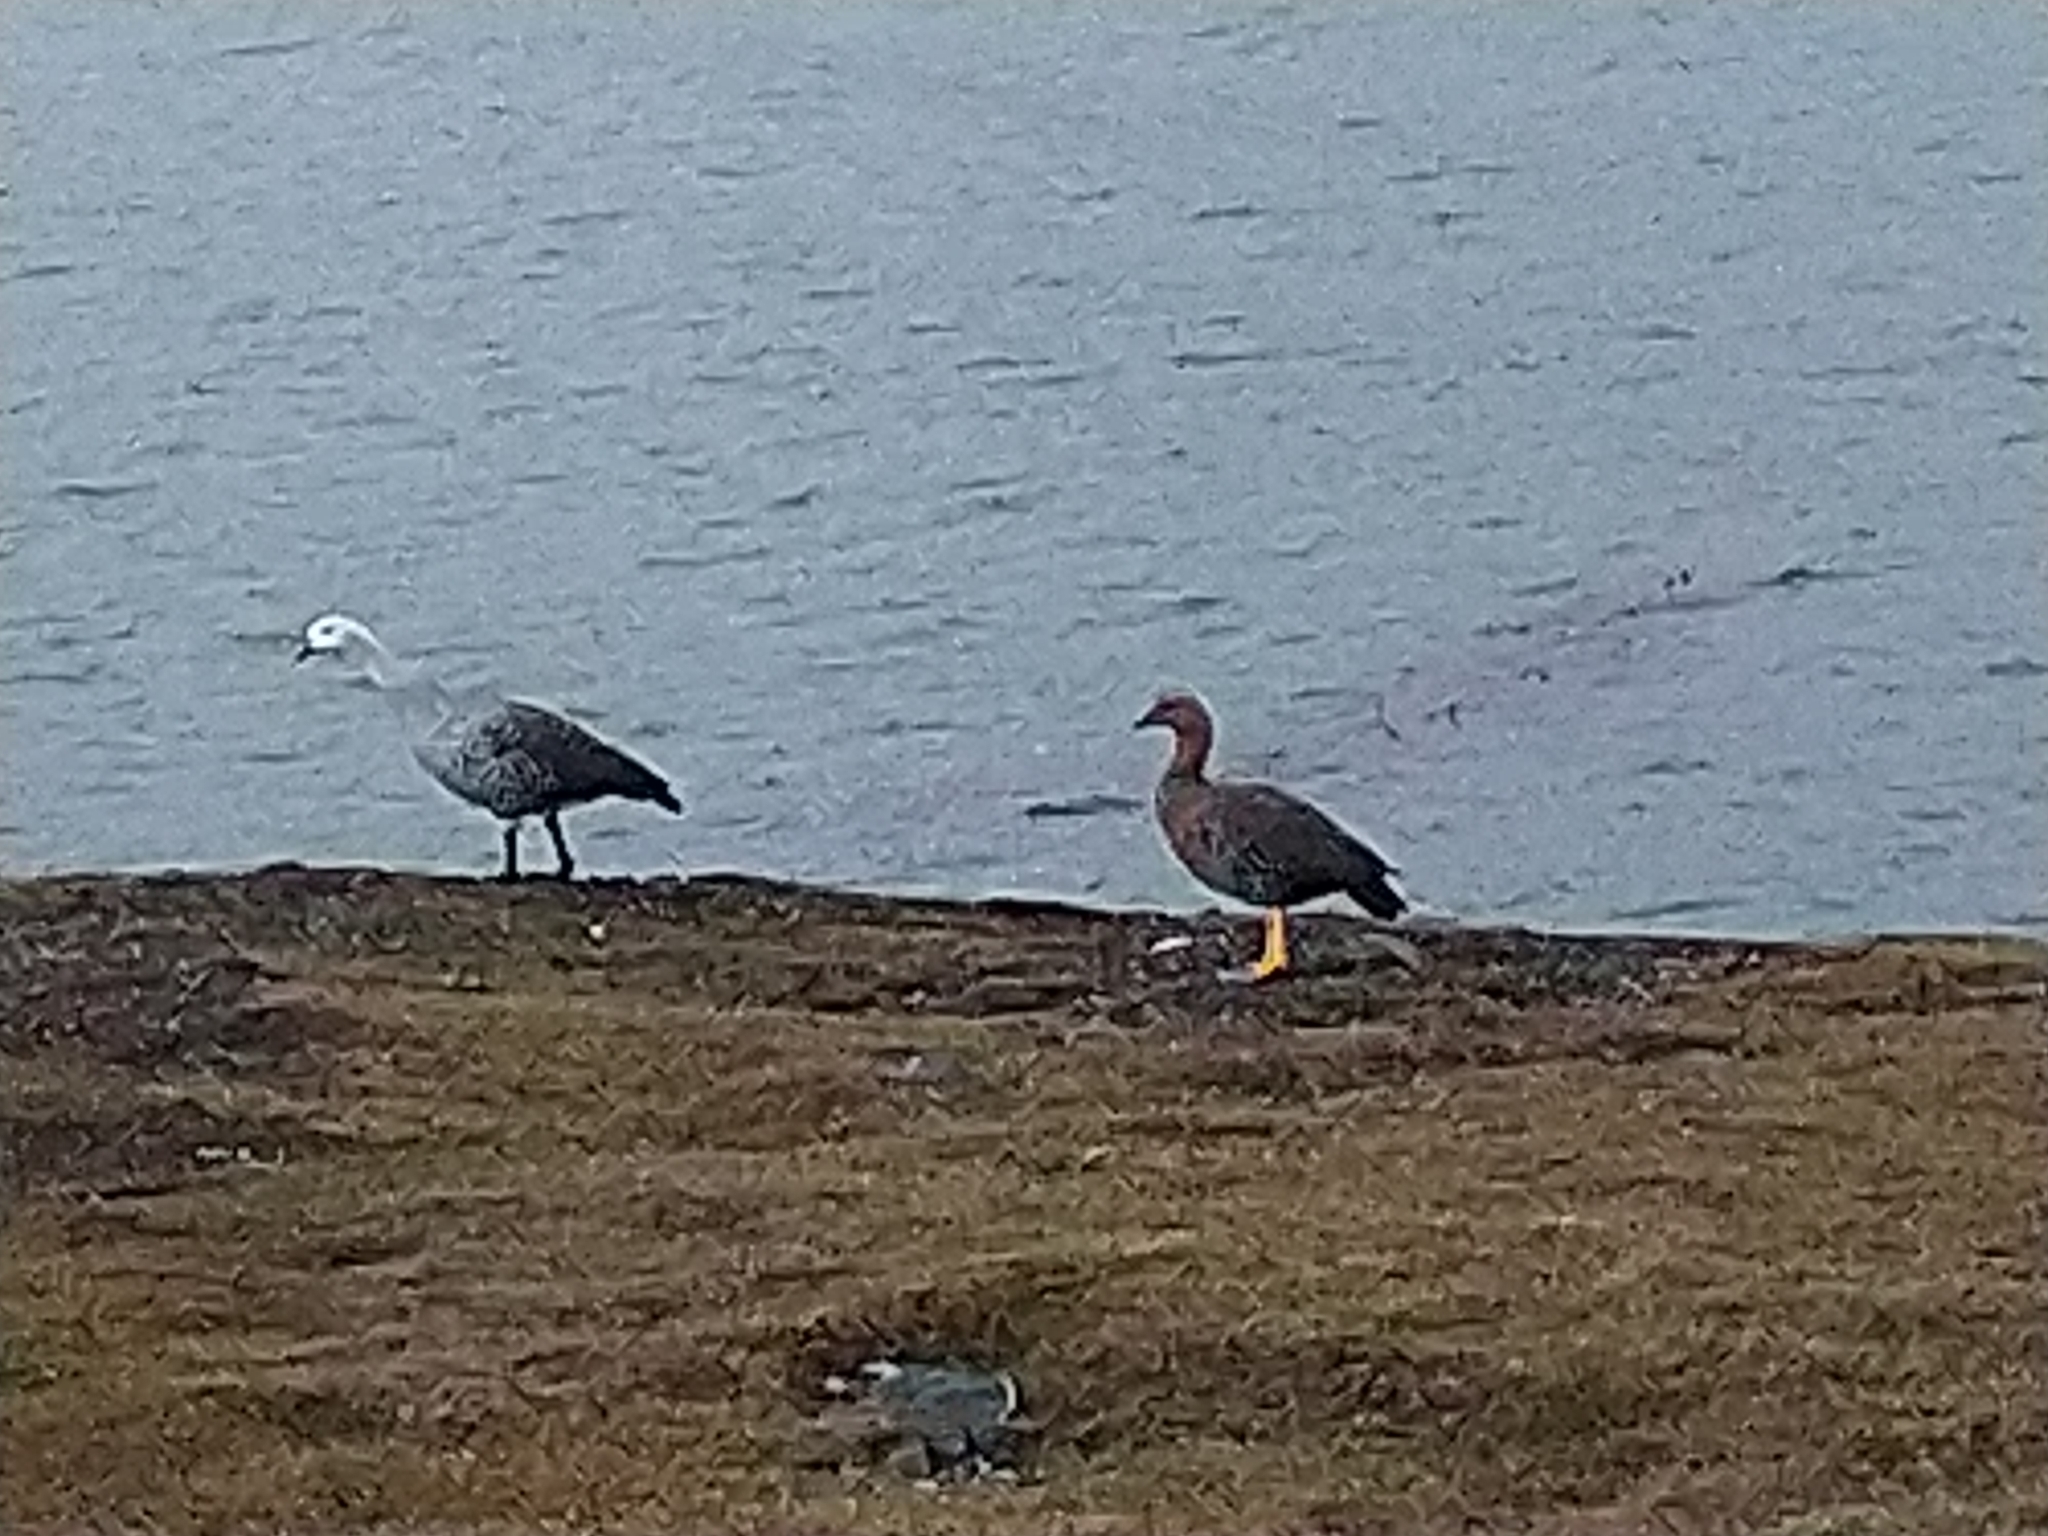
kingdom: Animalia
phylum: Chordata
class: Aves
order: Anseriformes
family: Anatidae
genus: Chloephaga
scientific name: Chloephaga picta
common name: Upland goose
